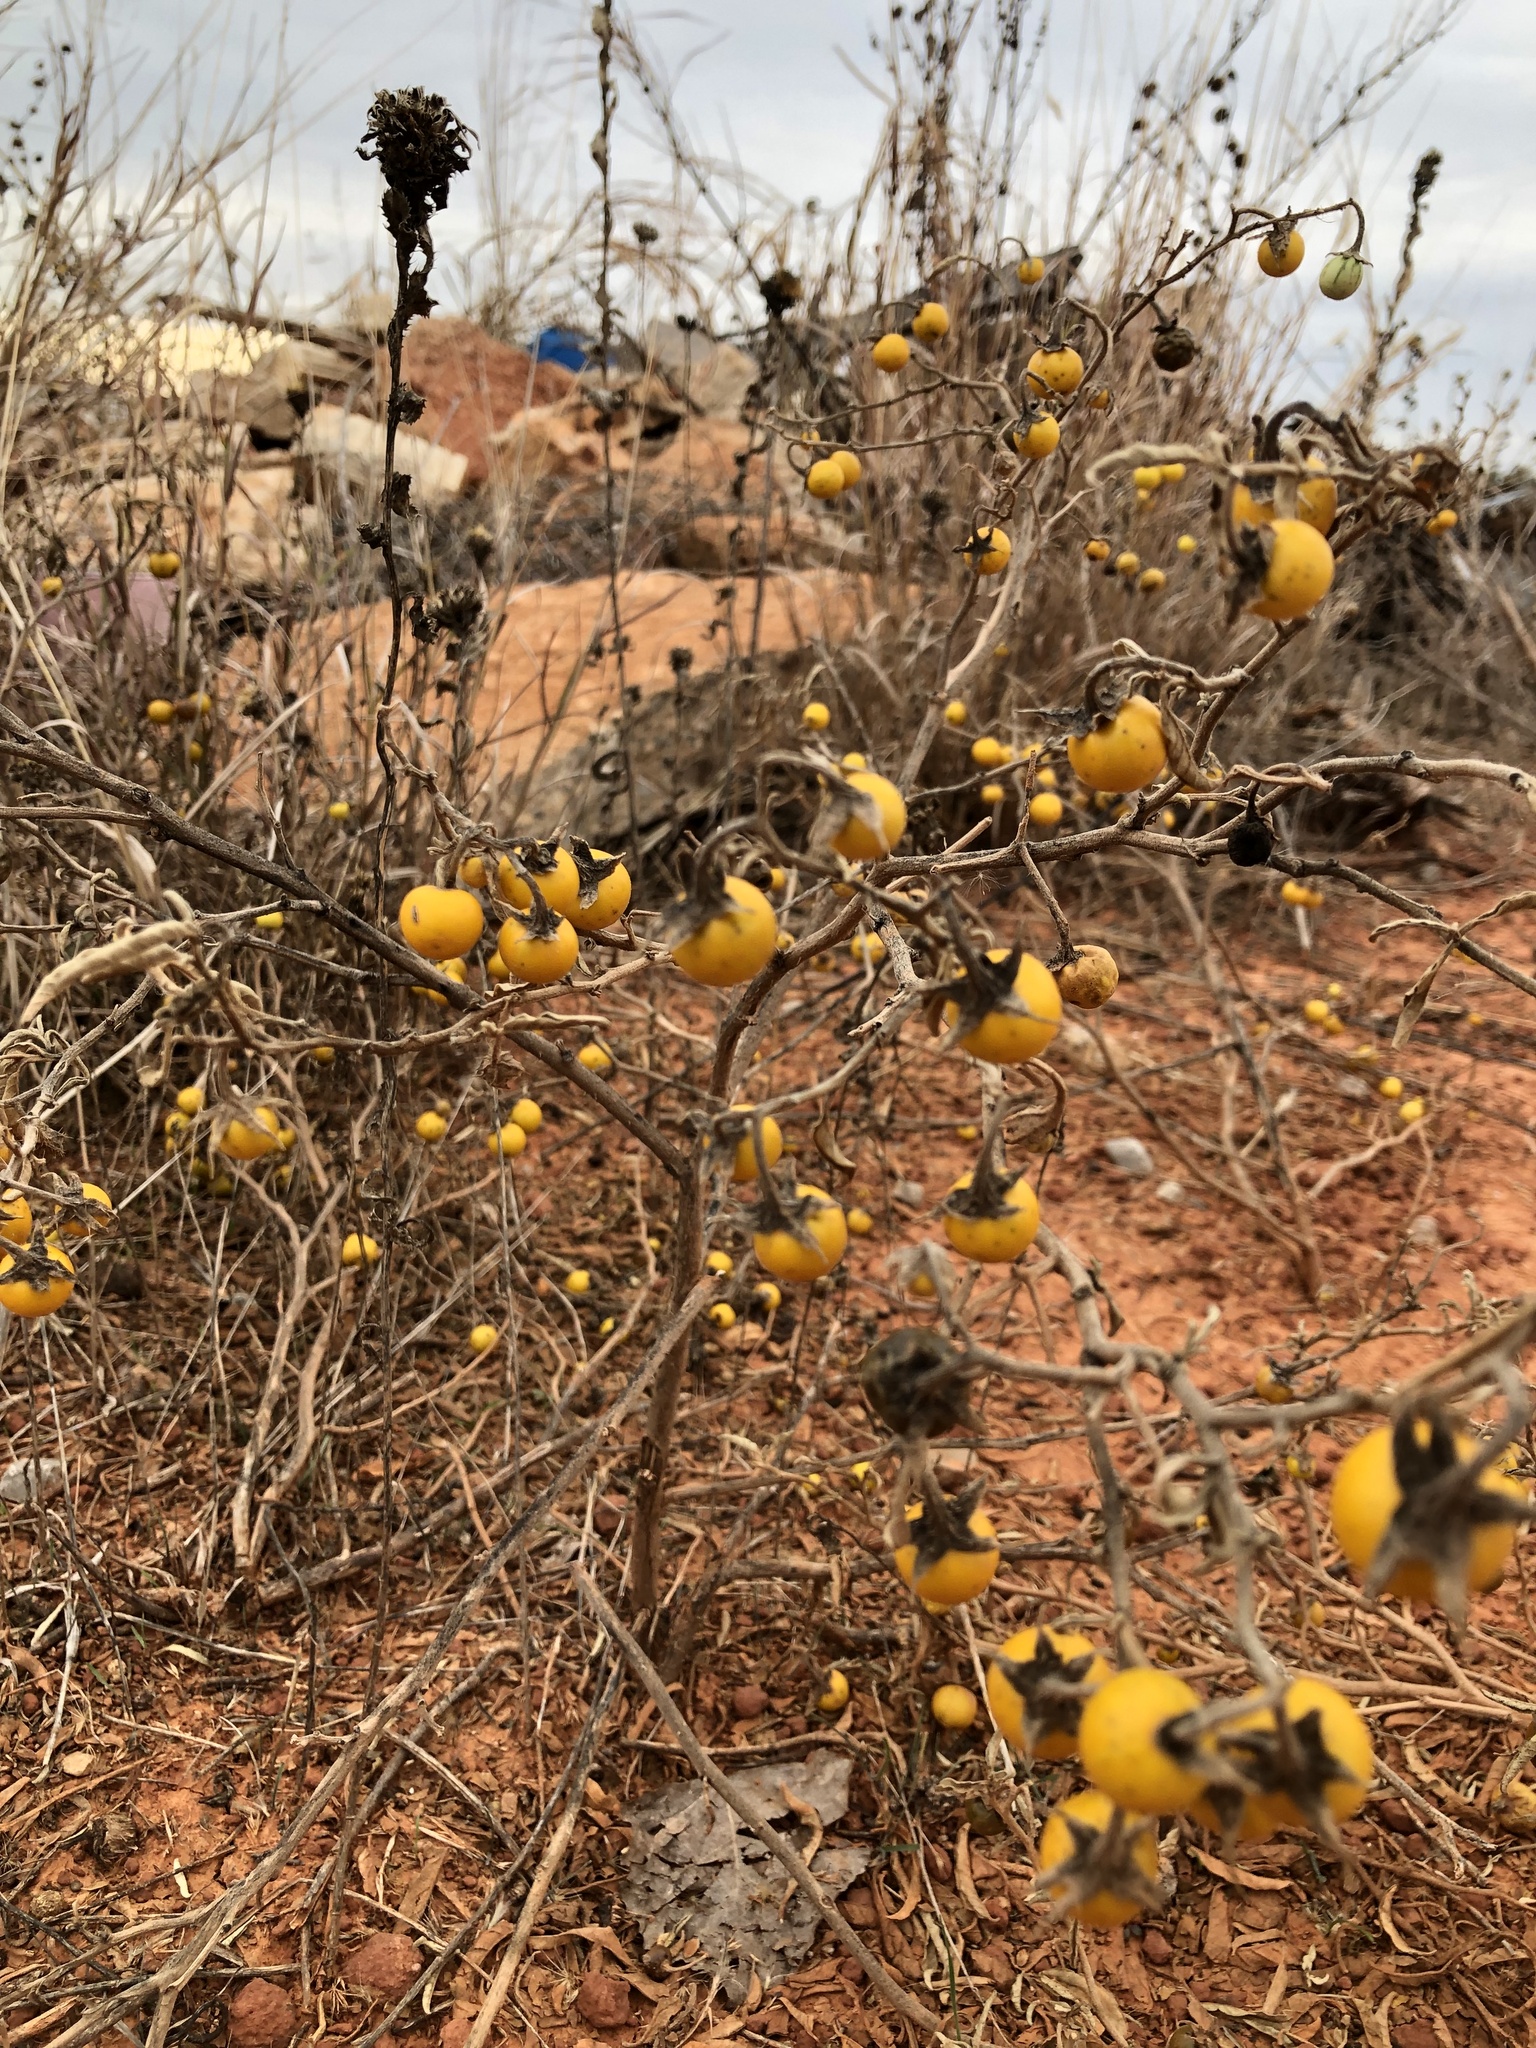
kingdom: Plantae
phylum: Tracheophyta
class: Magnoliopsida
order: Solanales
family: Solanaceae
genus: Solanum
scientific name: Solanum elaeagnifolium
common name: Silverleaf nightshade
